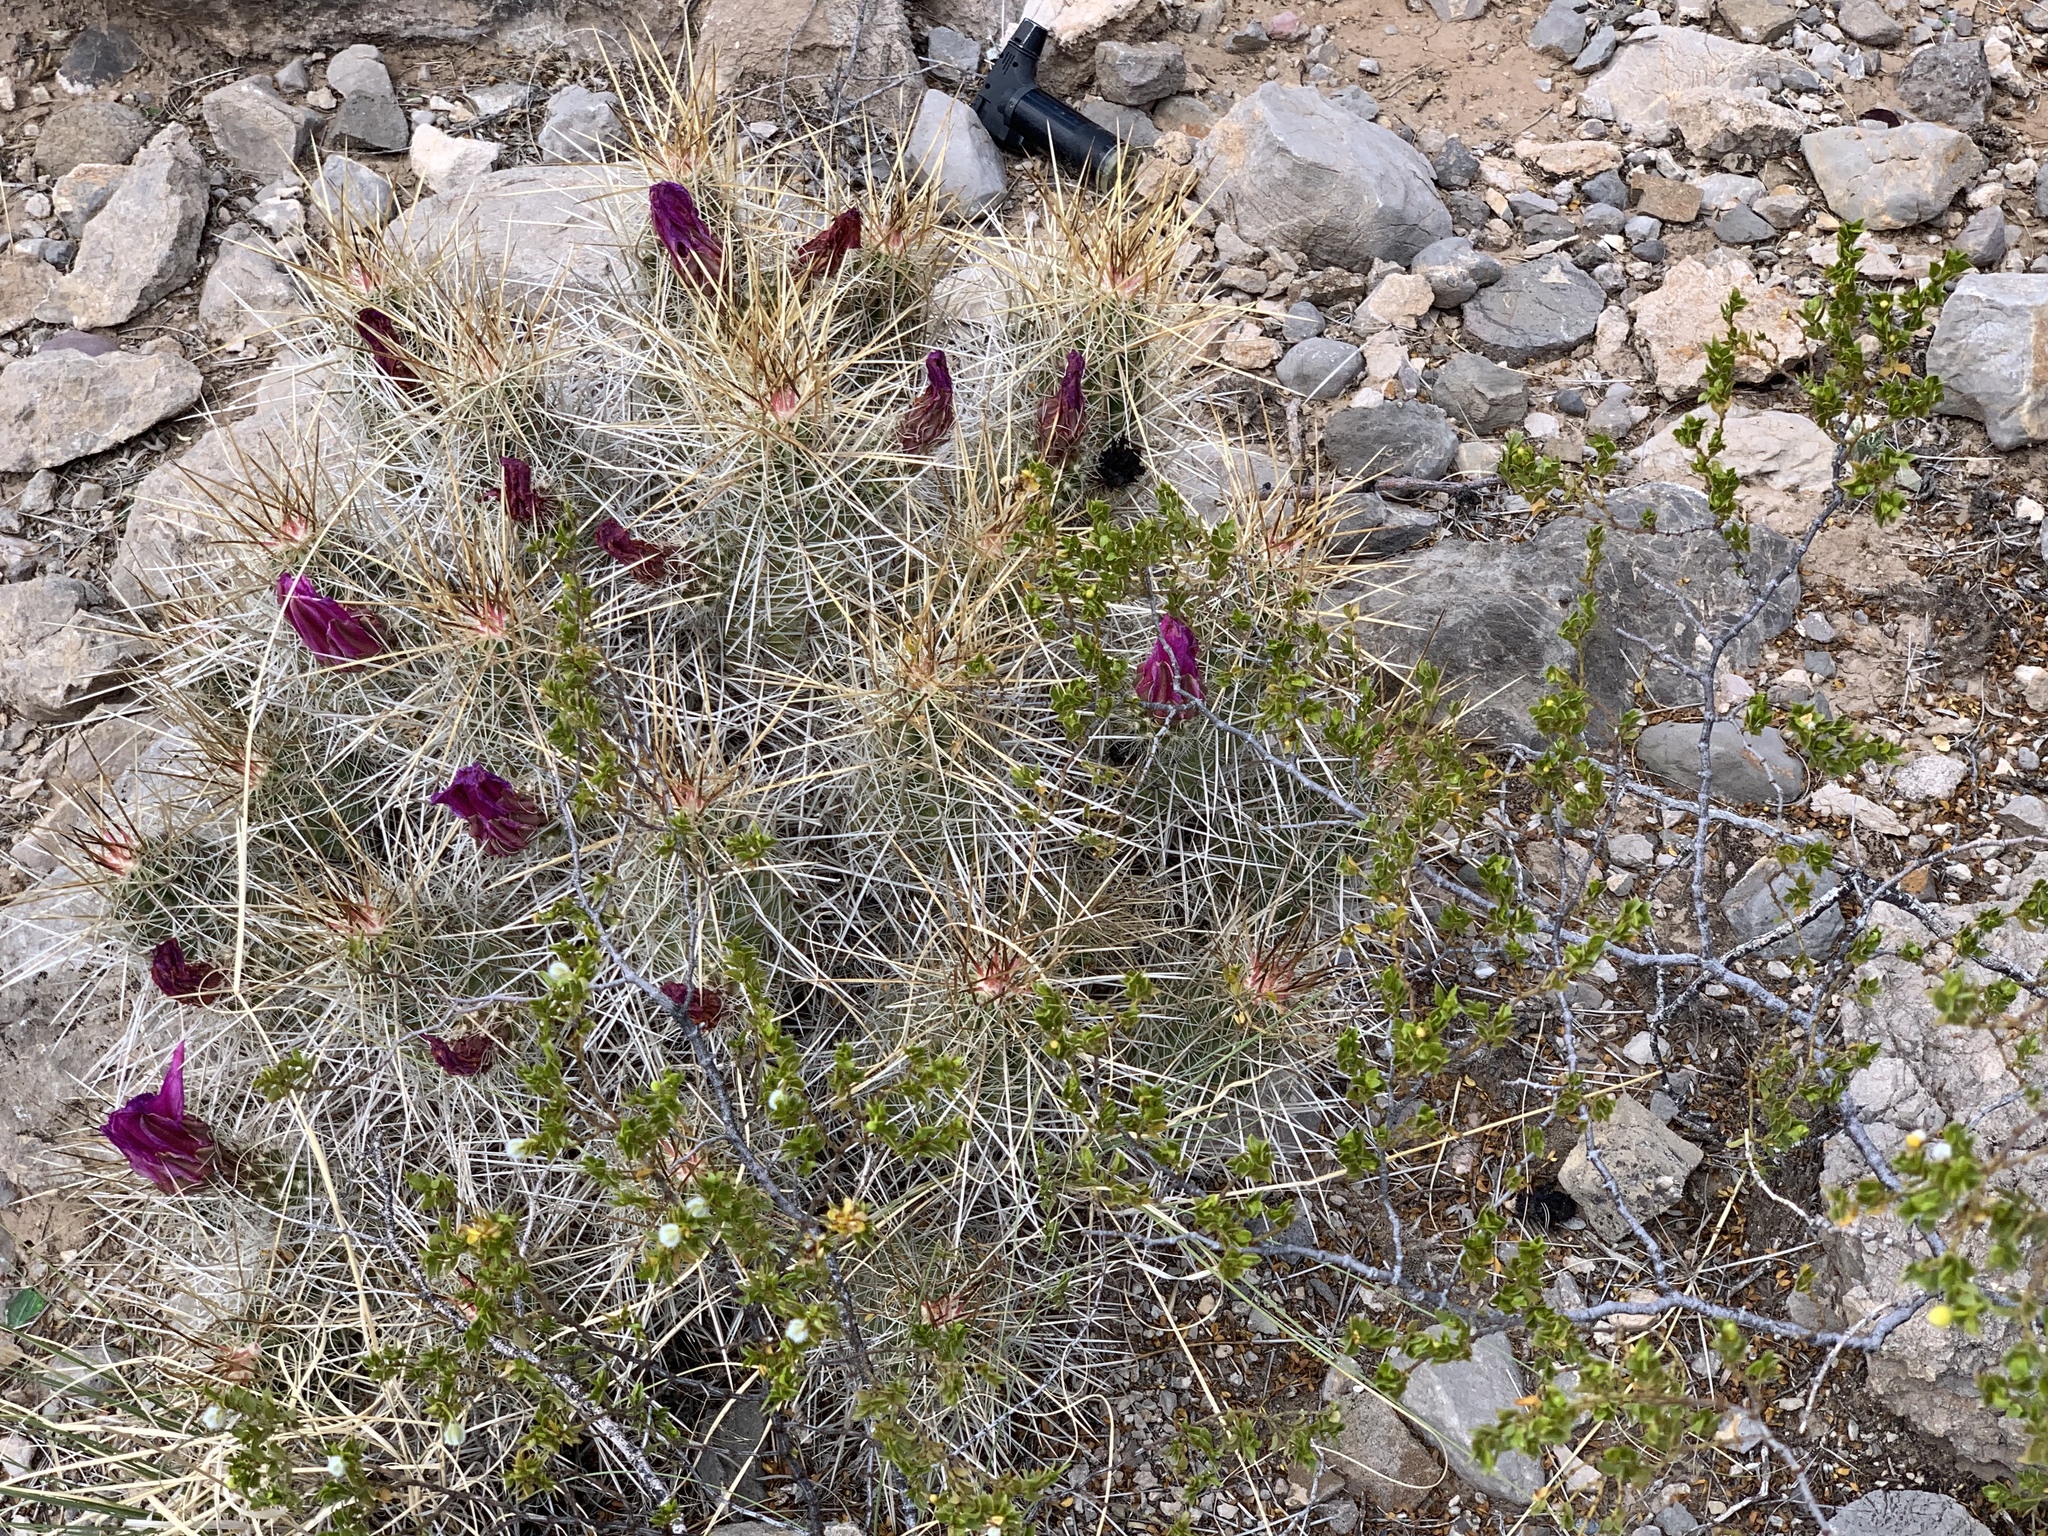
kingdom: Plantae
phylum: Tracheophyta
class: Magnoliopsida
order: Caryophyllales
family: Cactaceae
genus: Echinocereus
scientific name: Echinocereus stramineus
